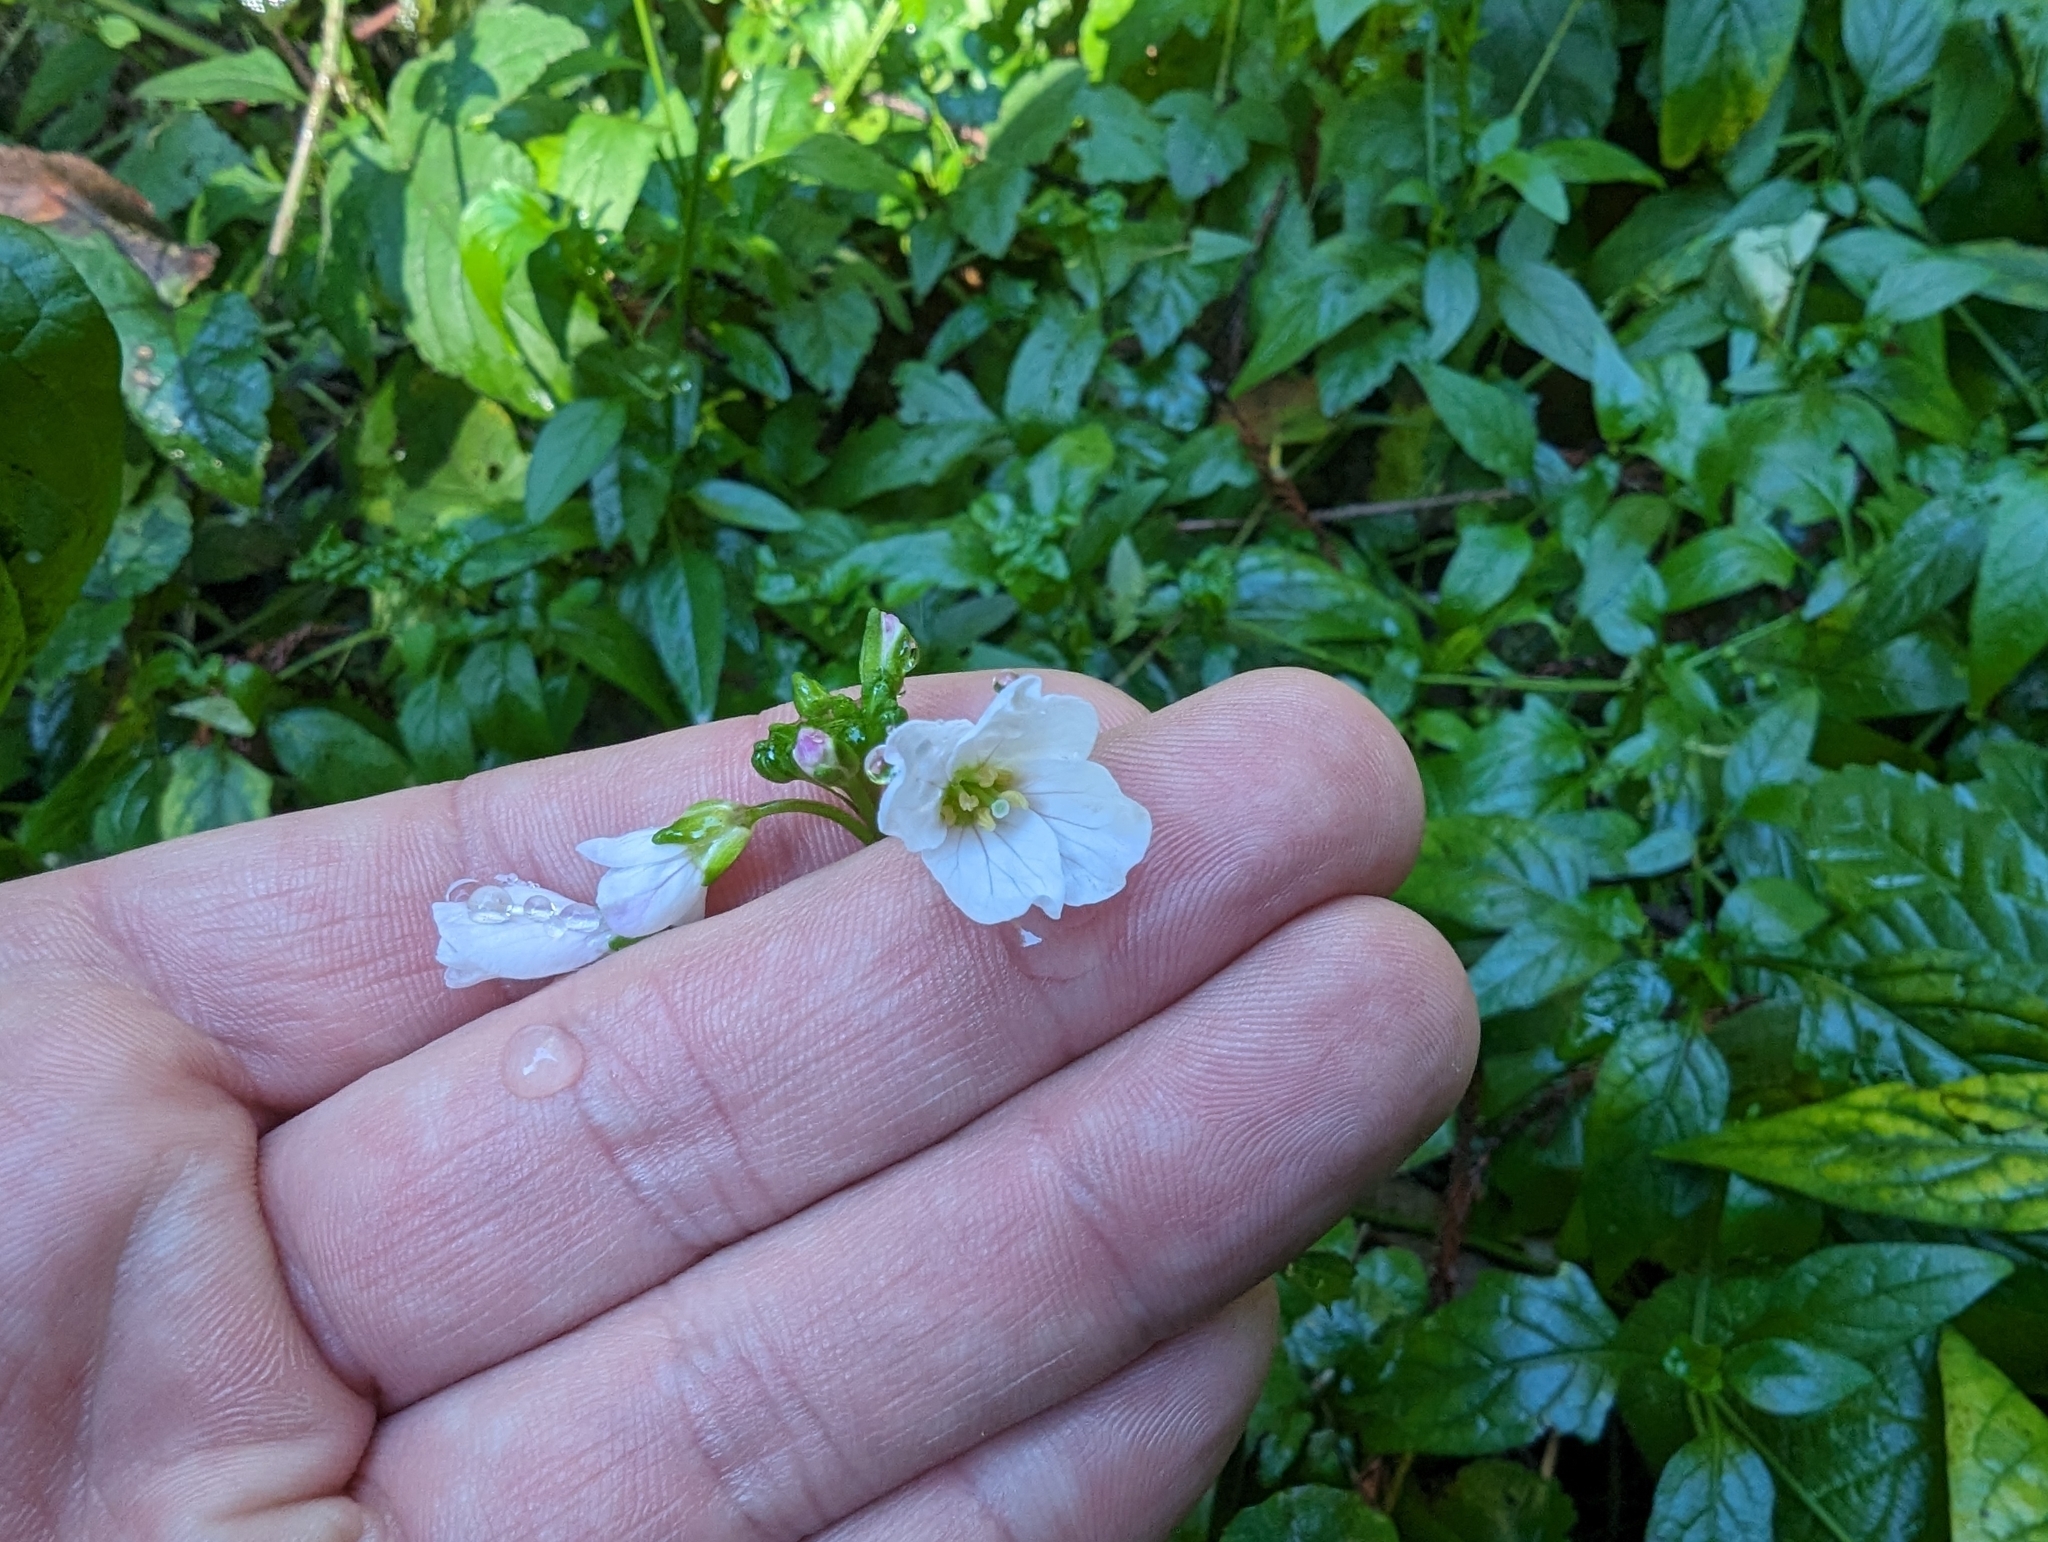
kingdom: Plantae
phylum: Tracheophyta
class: Magnoliopsida
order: Brassicales
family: Brassicaceae
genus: Cardamine
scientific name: Cardamine californica
